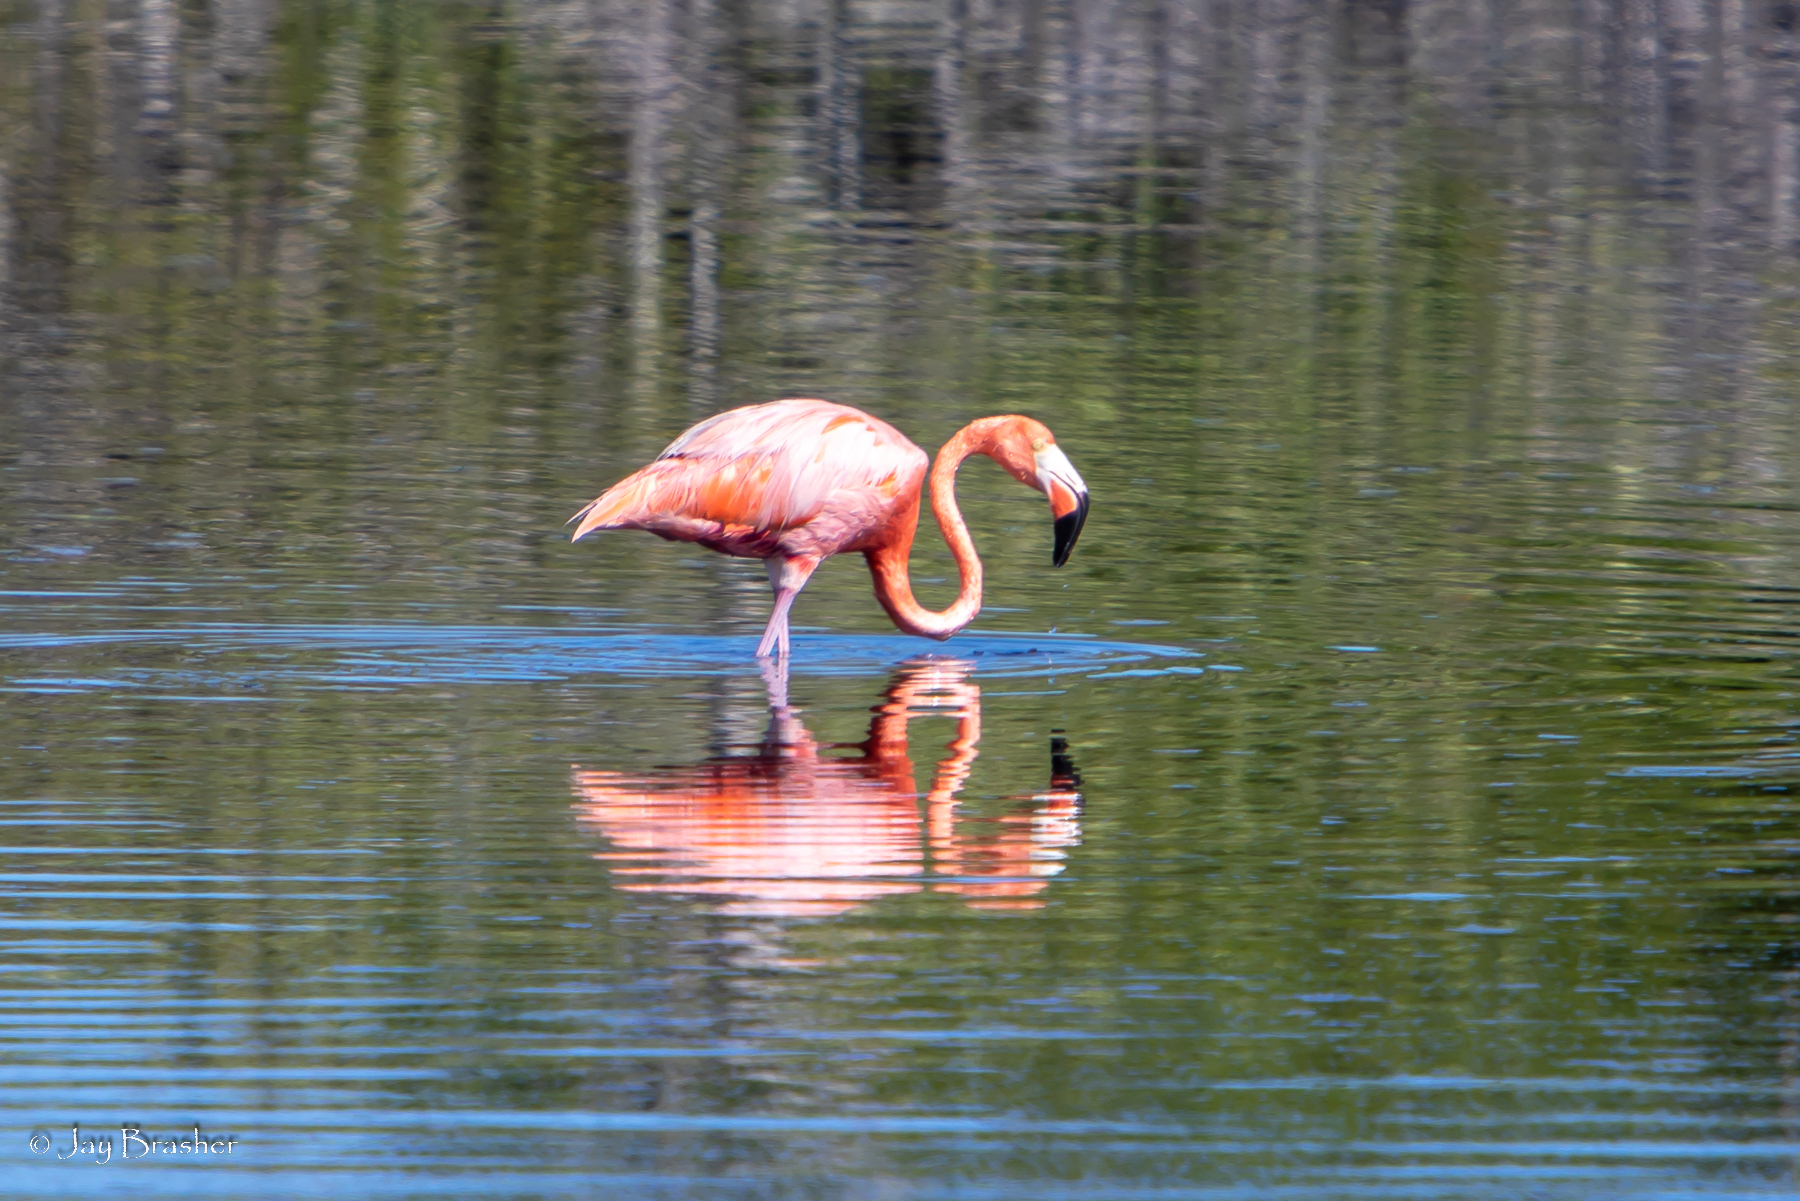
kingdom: Animalia
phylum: Chordata
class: Aves
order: Phoenicopteriformes
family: Phoenicopteridae
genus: Phoenicopterus
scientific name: Phoenicopterus ruber
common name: American flamingo
